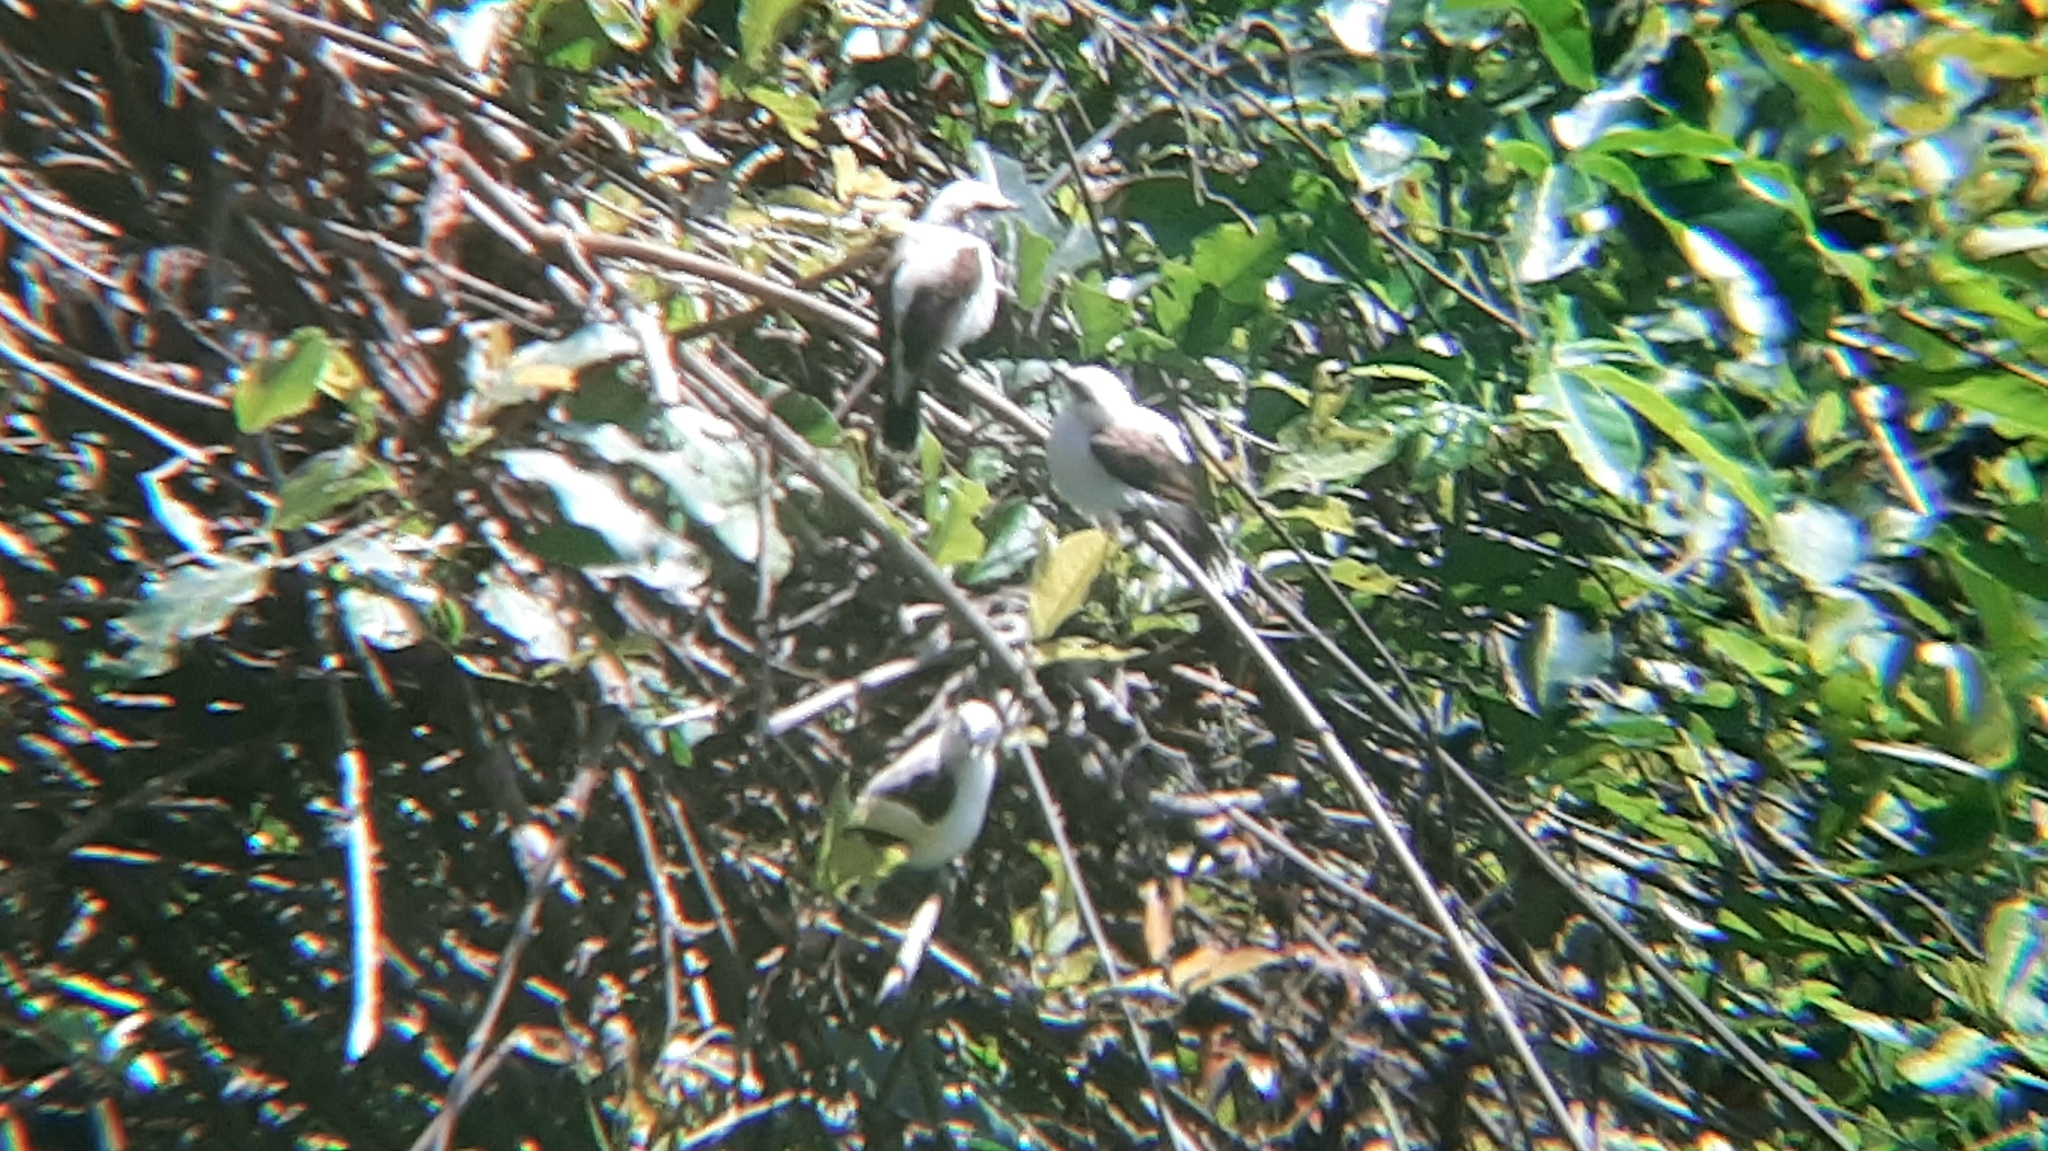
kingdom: Animalia
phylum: Chordata
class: Aves
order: Passeriformes
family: Tyrannidae
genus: Fluvicola
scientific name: Fluvicola nengeta
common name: Masked water tyrant
